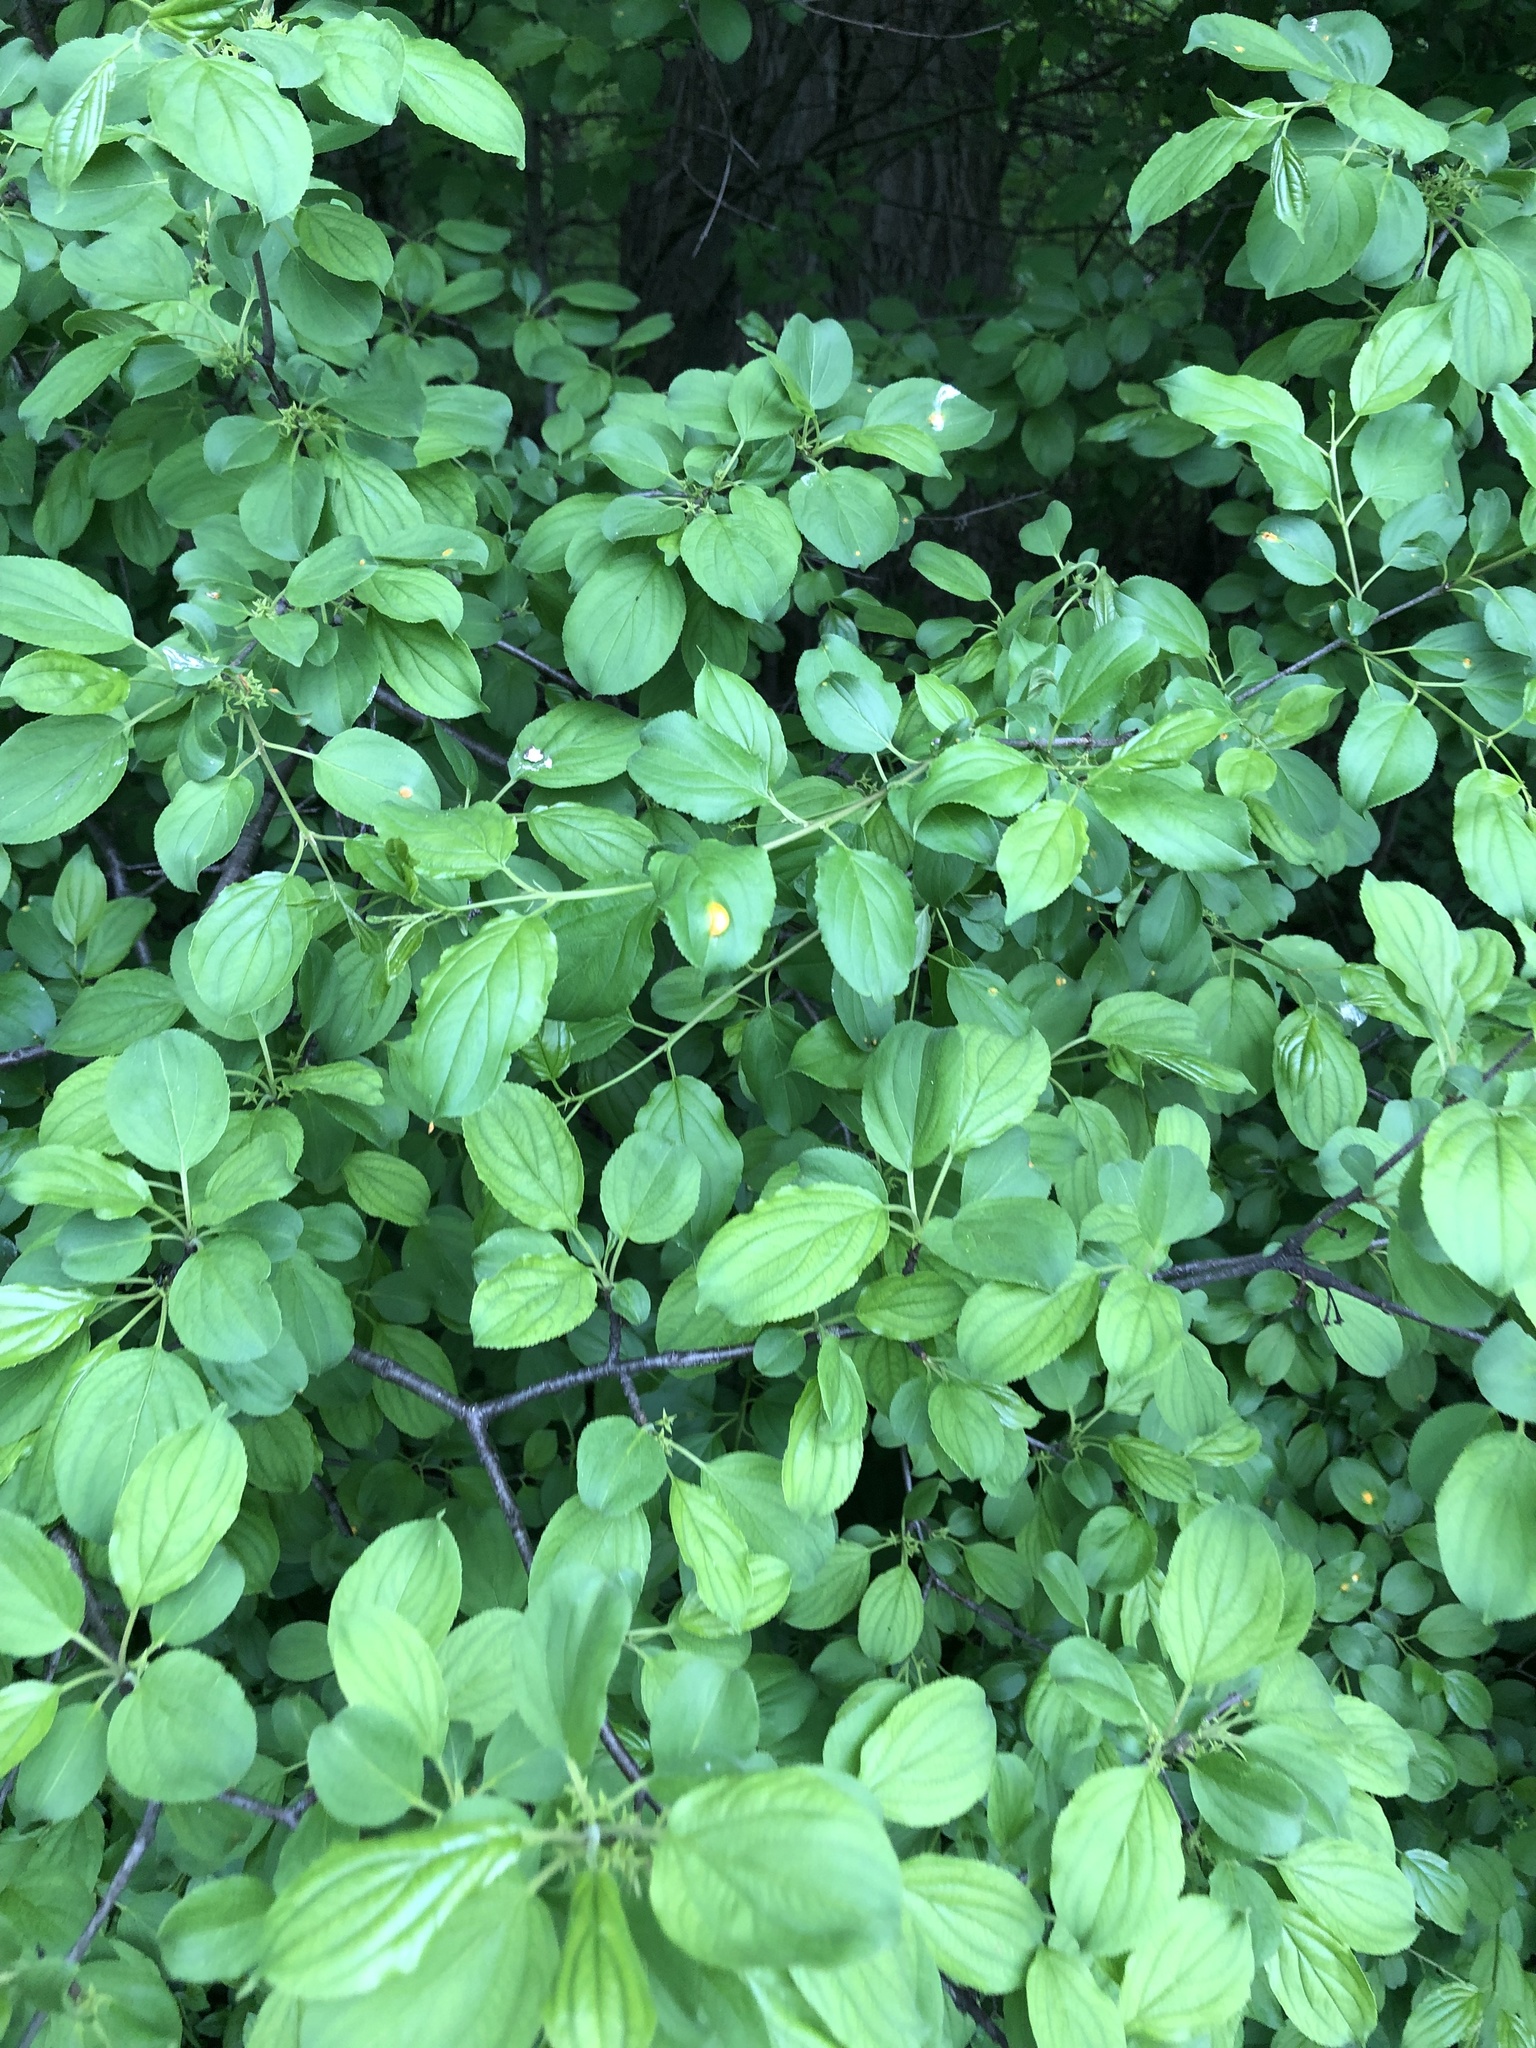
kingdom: Plantae
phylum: Tracheophyta
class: Magnoliopsida
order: Rosales
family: Rhamnaceae
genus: Rhamnus
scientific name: Rhamnus cathartica
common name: Common buckthorn
